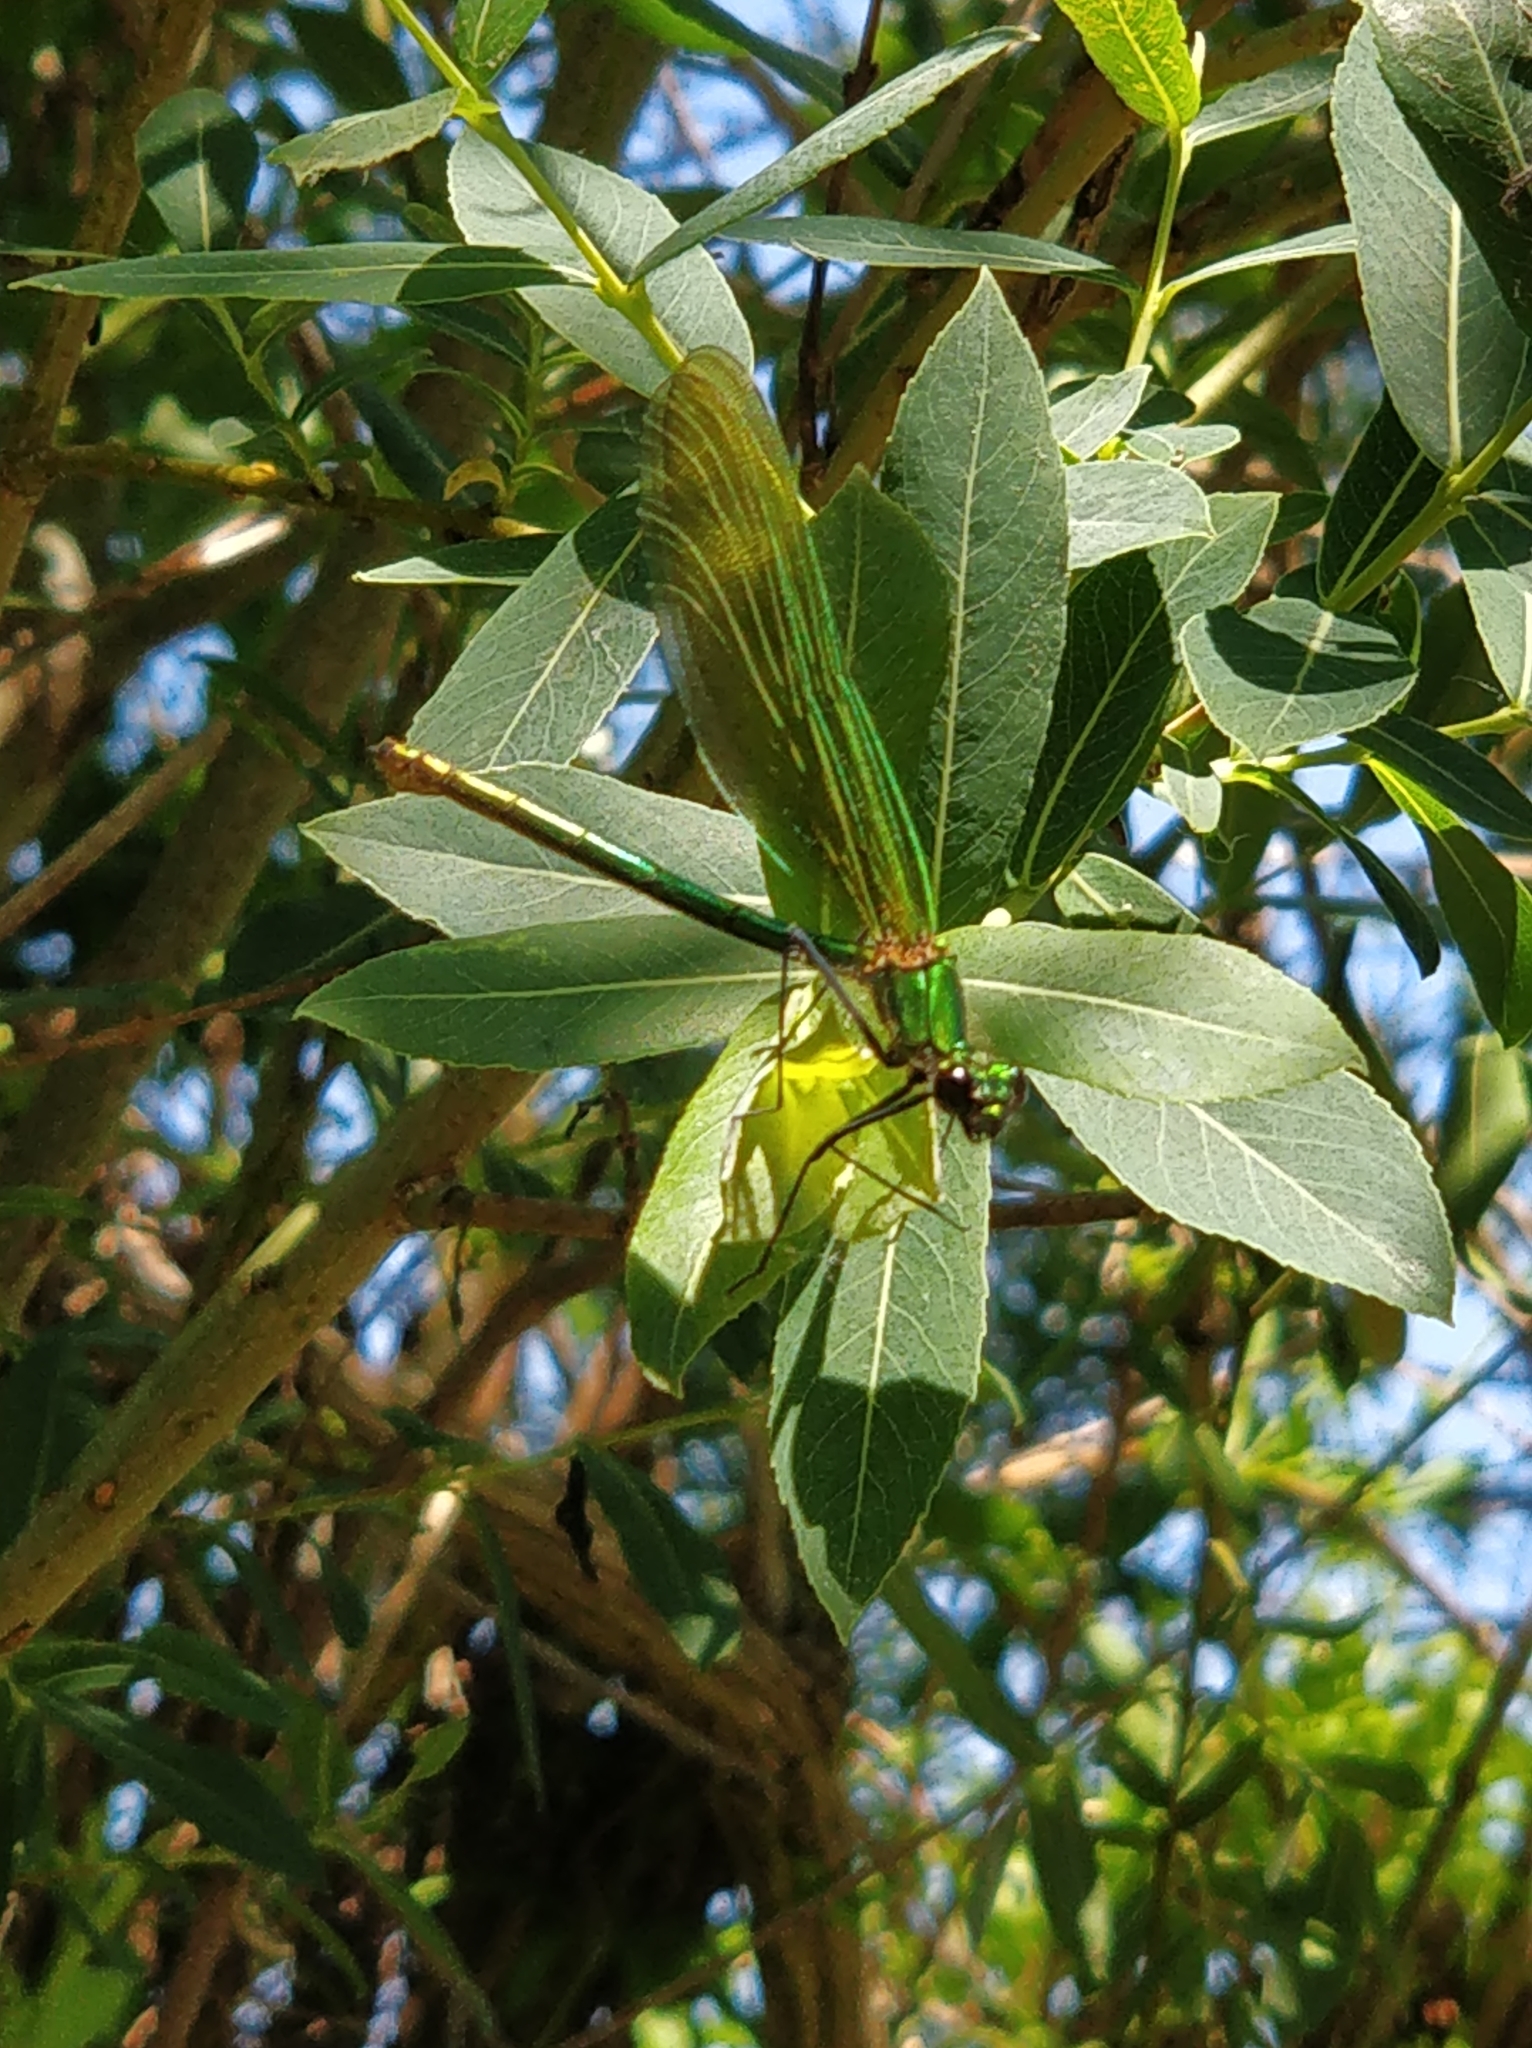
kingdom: Animalia
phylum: Arthropoda
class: Insecta
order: Odonata
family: Calopterygidae
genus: Calopteryx
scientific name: Calopteryx splendens
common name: Banded demoiselle
